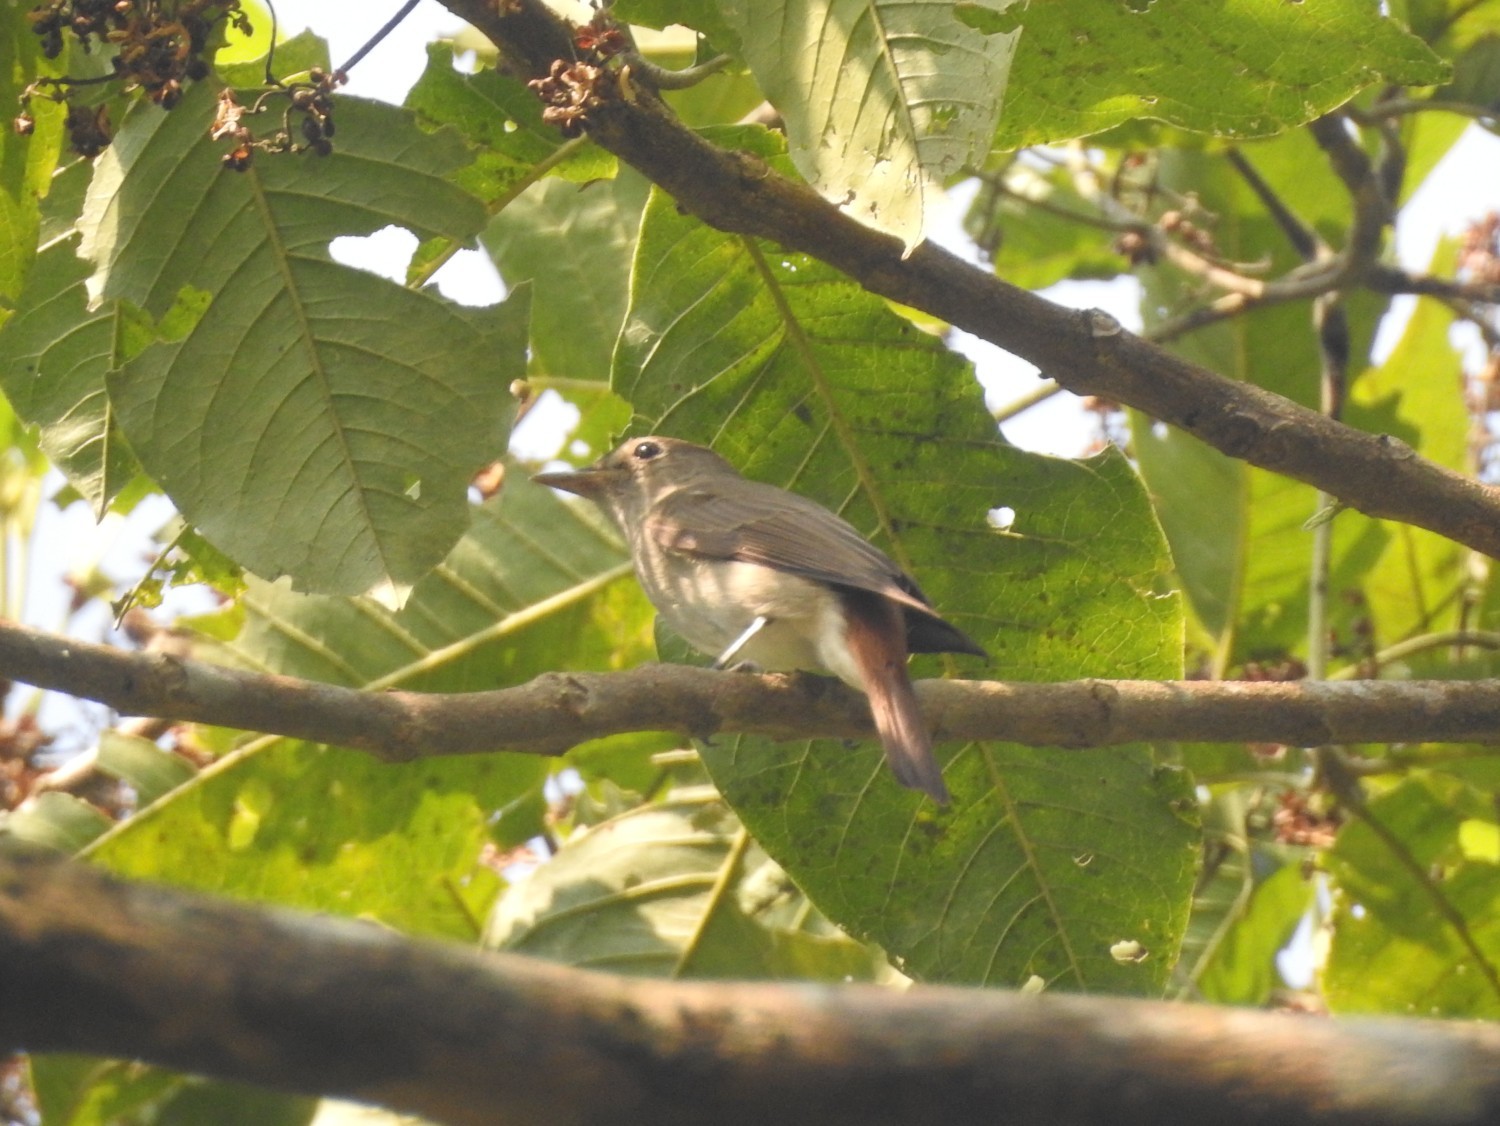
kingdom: Animalia
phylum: Chordata
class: Aves
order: Passeriformes
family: Muscicapidae
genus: Muscicapa
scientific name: Muscicapa ruficauda
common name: Rusty-tailed flycatcher
